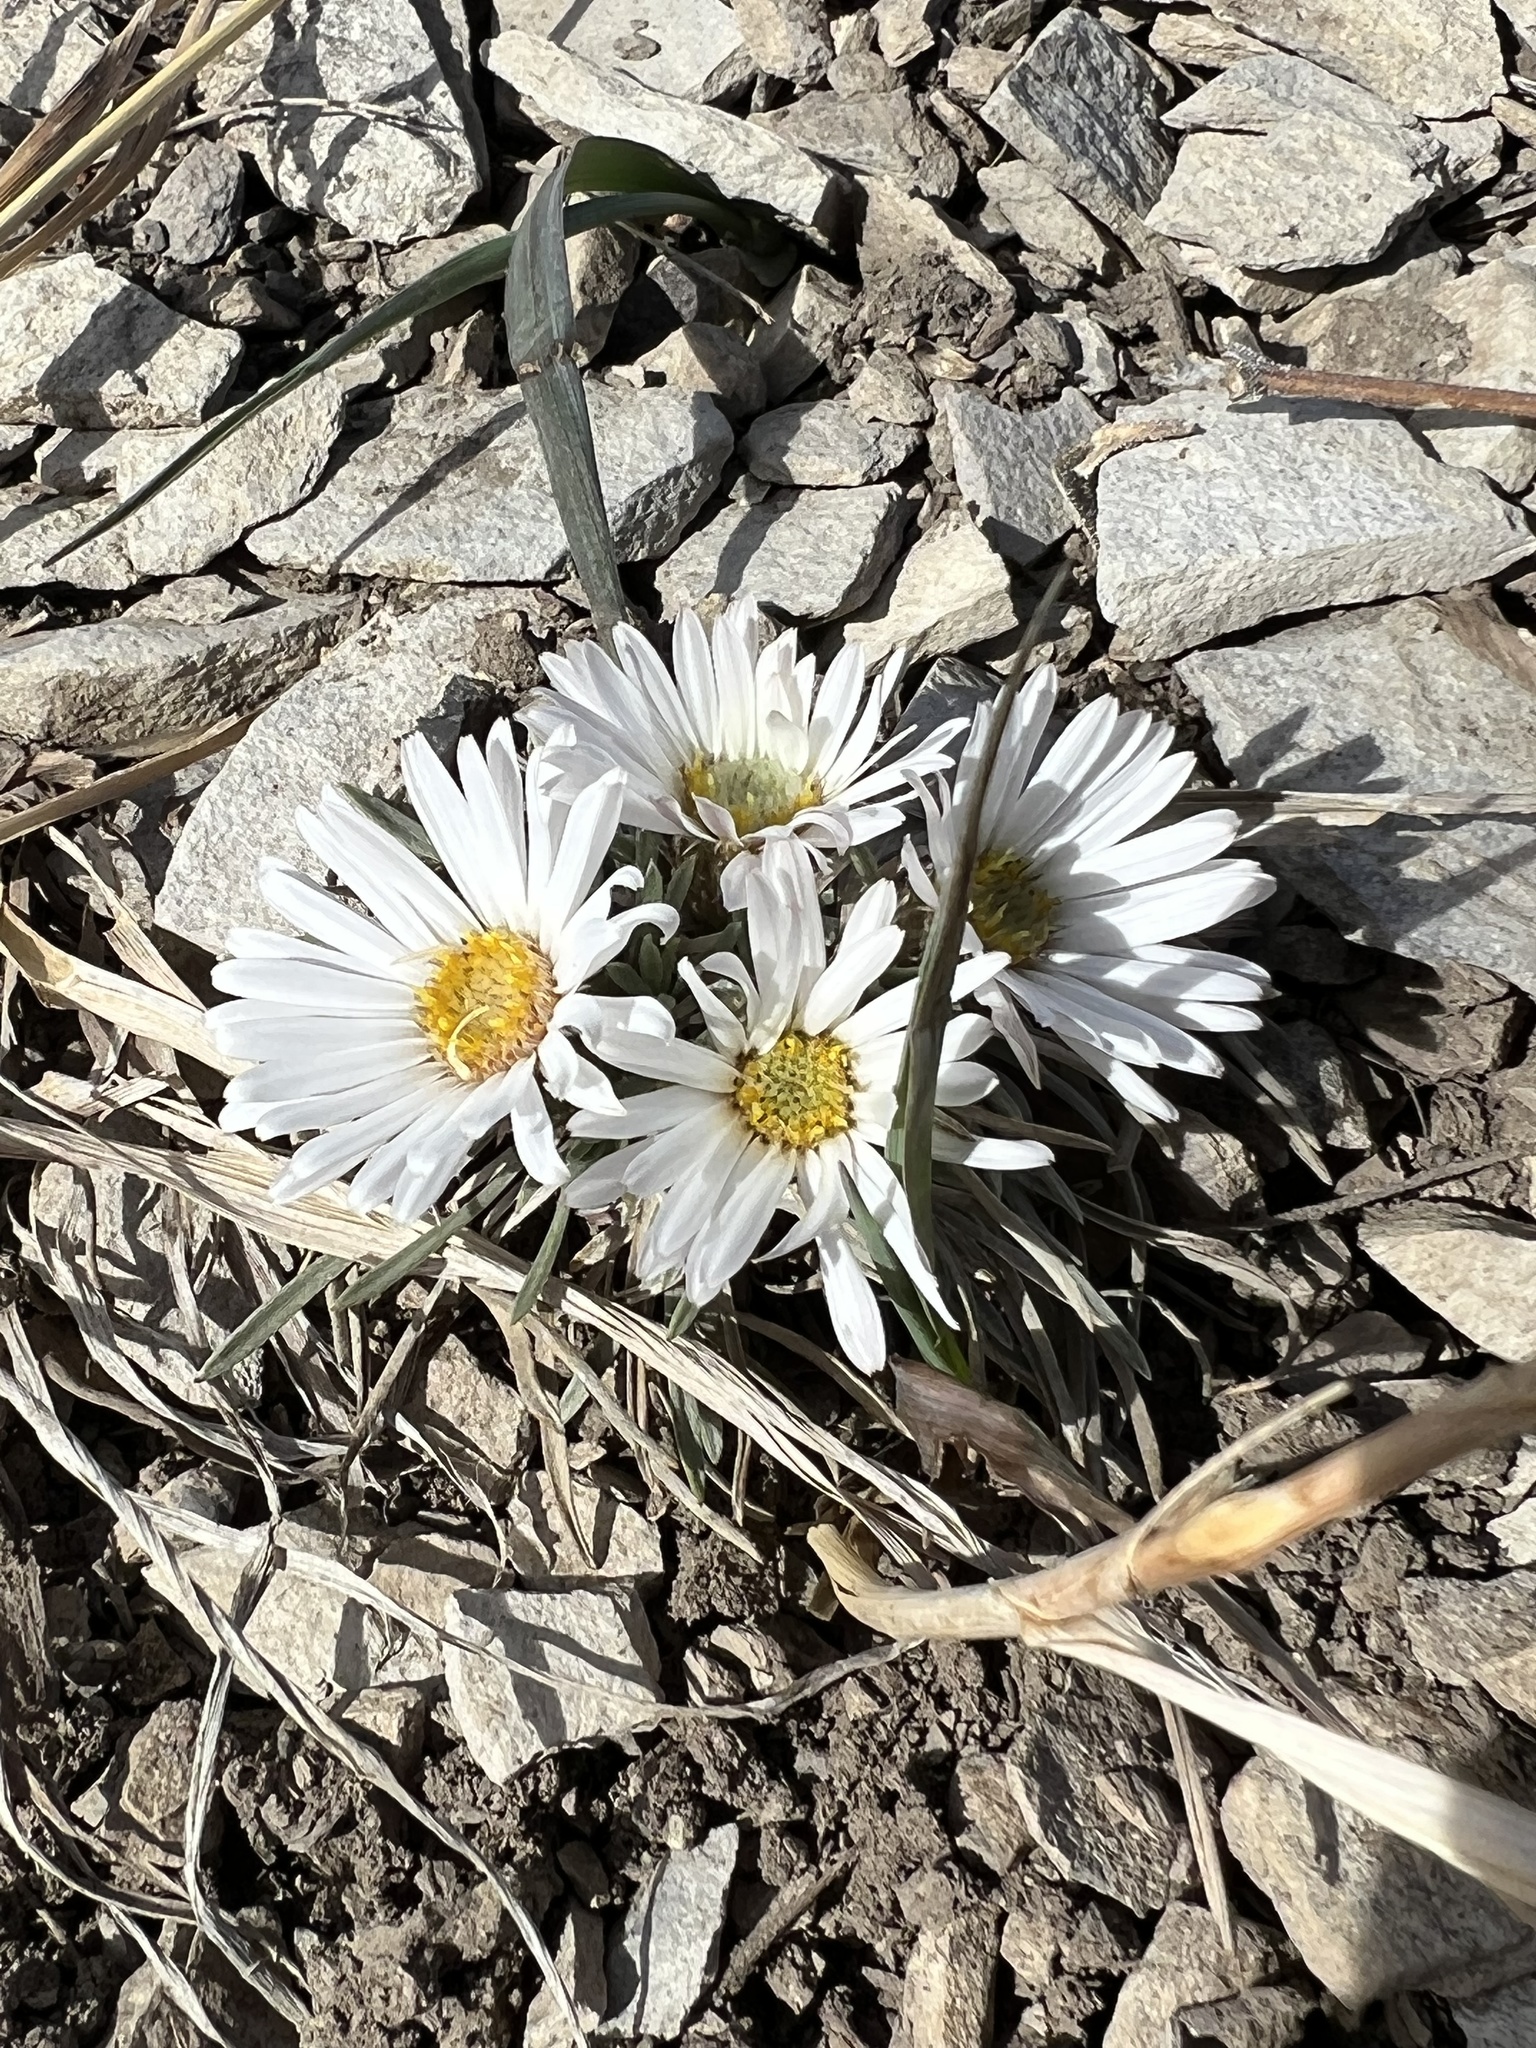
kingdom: Plantae
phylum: Tracheophyta
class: Magnoliopsida
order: Asterales
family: Asteraceae
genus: Townsendia
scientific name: Townsendia hookeri
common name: Hooker's townsend daisy
